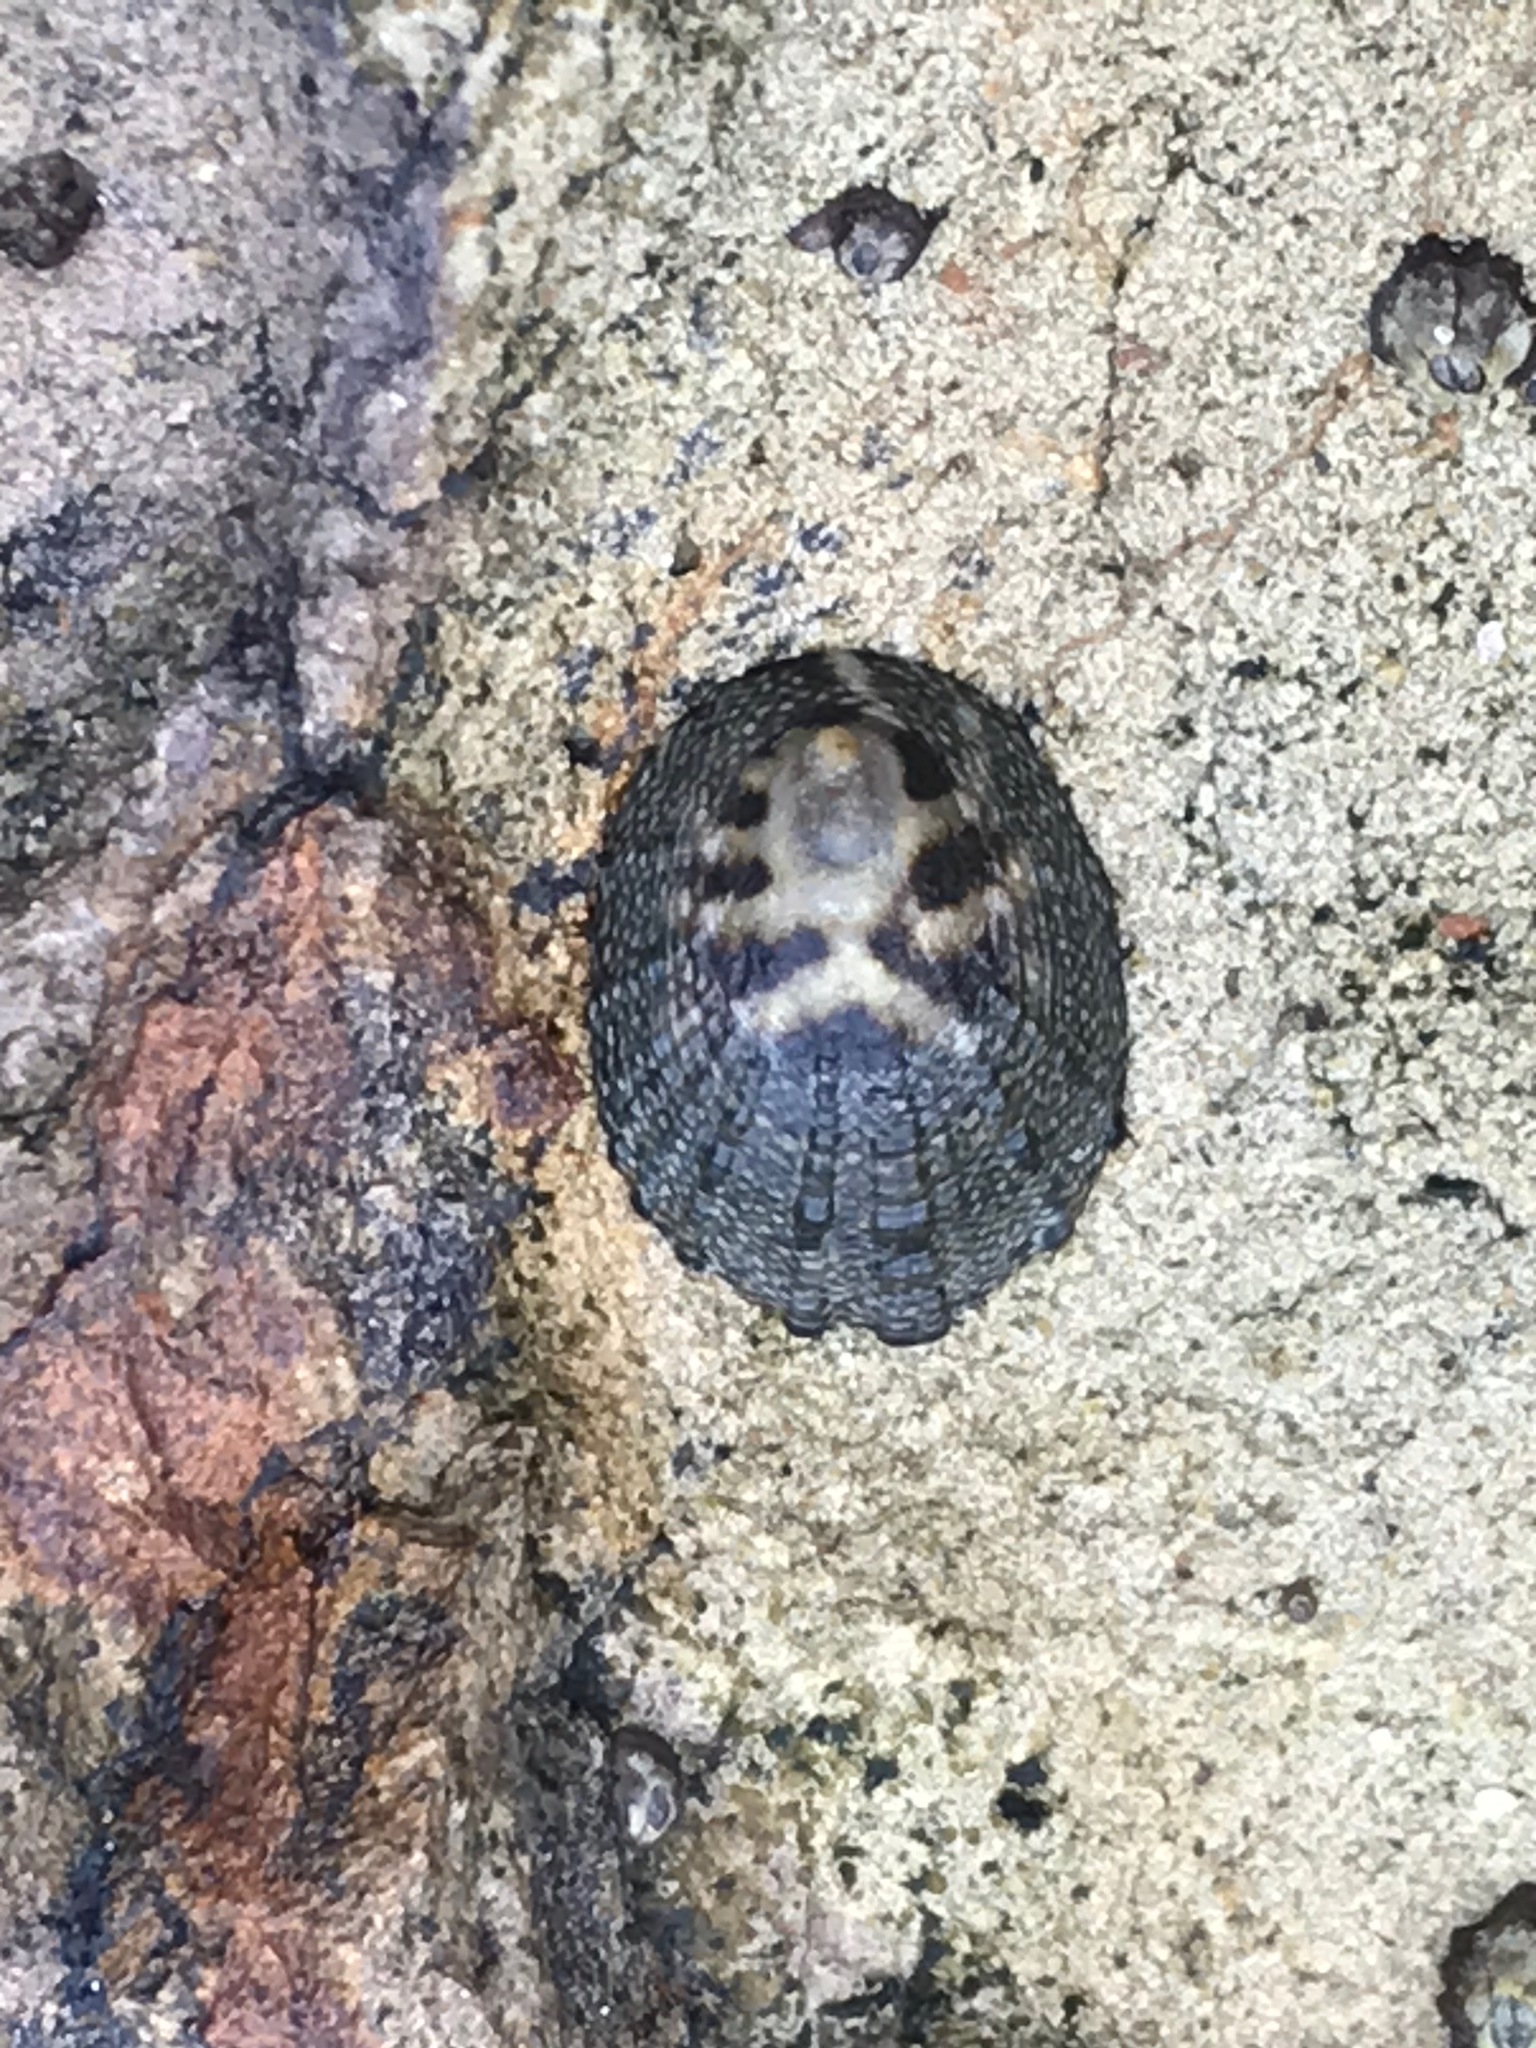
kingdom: Animalia
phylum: Mollusca
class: Gastropoda
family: Lottiidae
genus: Lottia
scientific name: Lottia austrodigitalis
